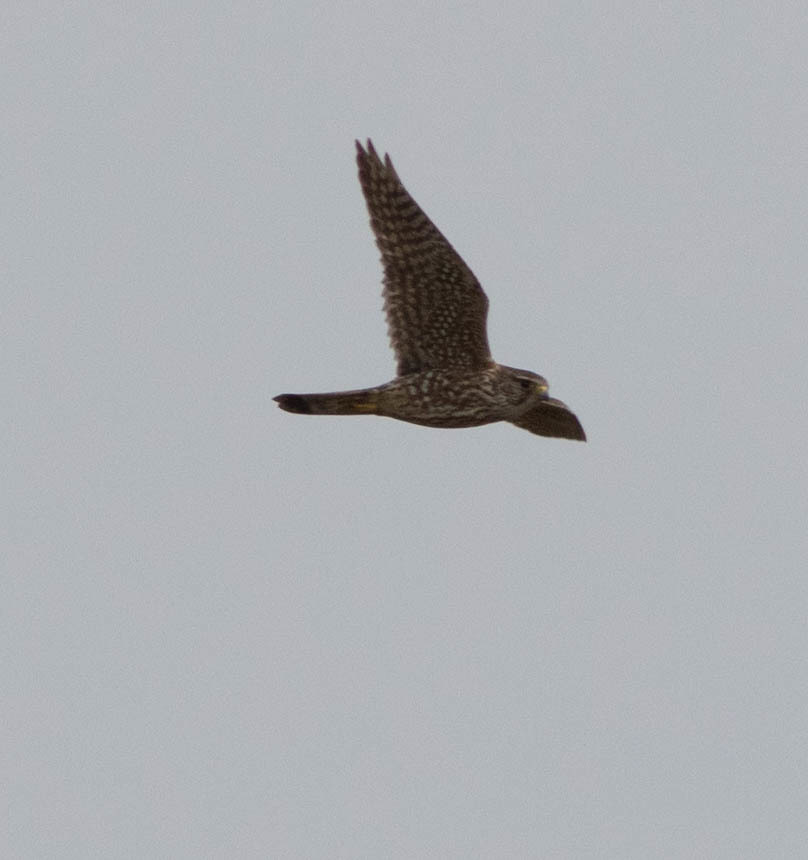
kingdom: Animalia
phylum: Chordata
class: Aves
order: Falconiformes
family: Falconidae
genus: Falco
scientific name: Falco columbarius
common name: Merlin
